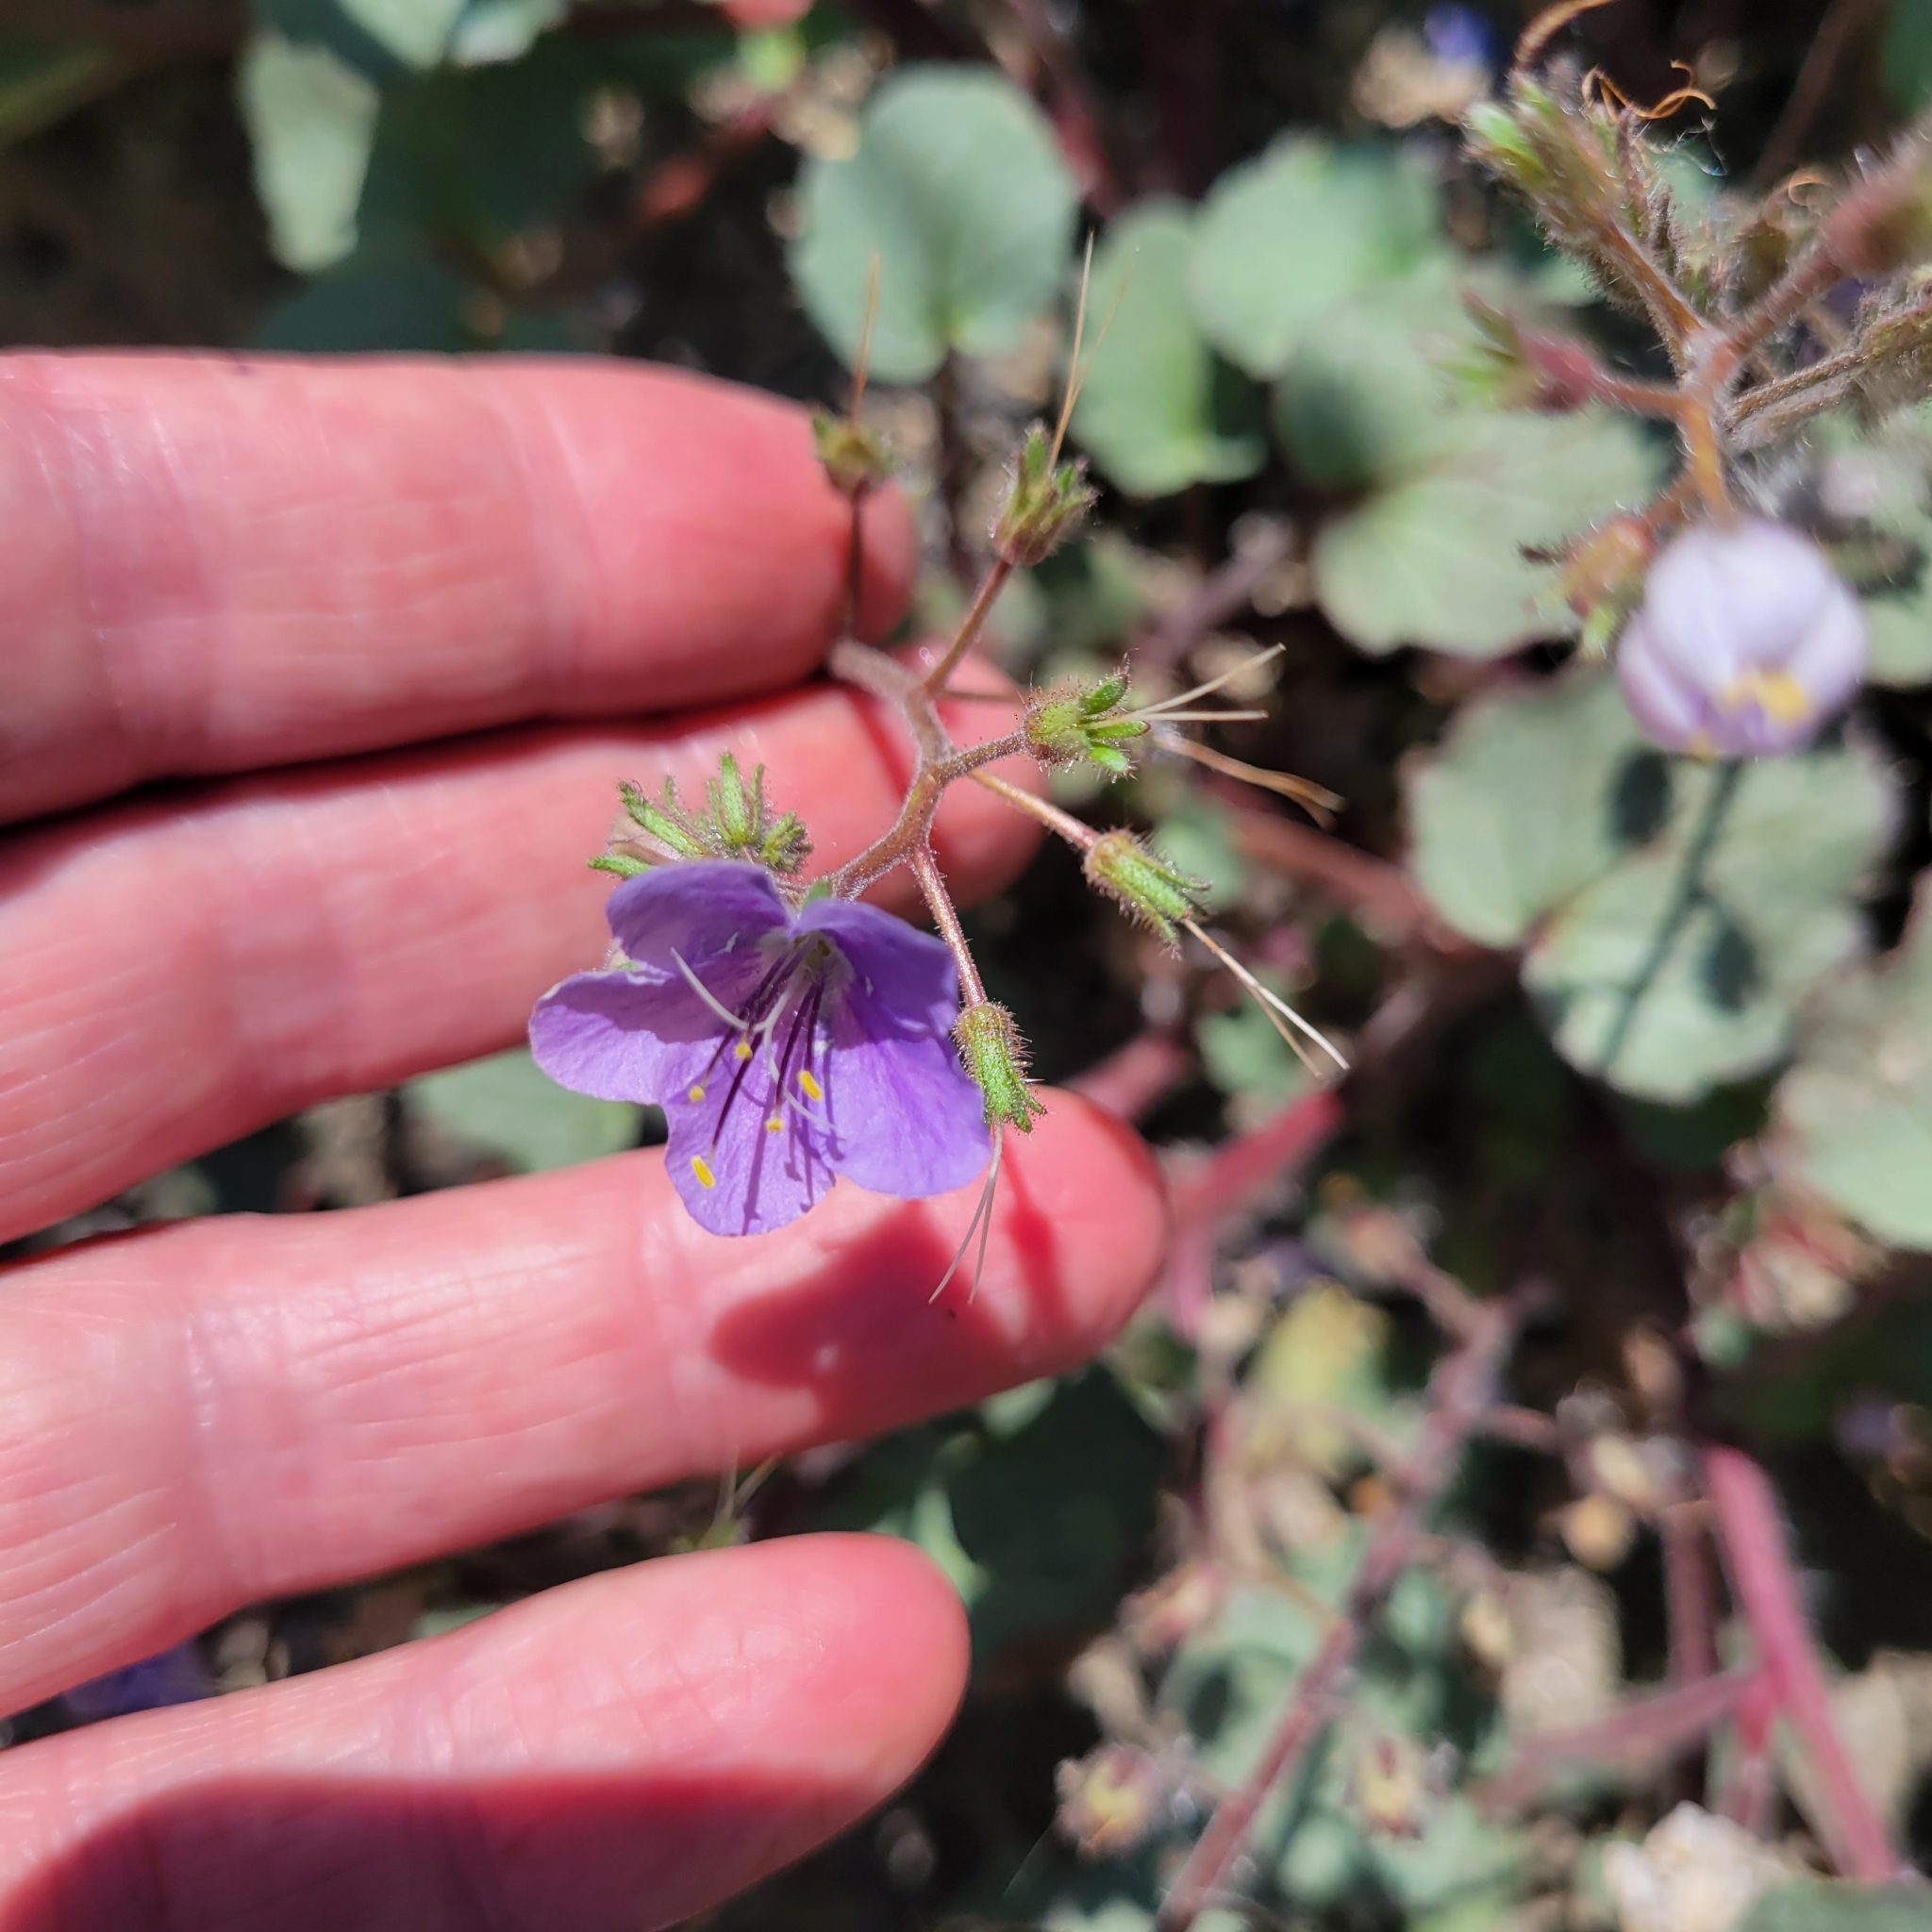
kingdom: Plantae
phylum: Tracheophyta
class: Magnoliopsida
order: Boraginales
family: Hydrophyllaceae
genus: Phacelia
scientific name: Phacelia longipes
